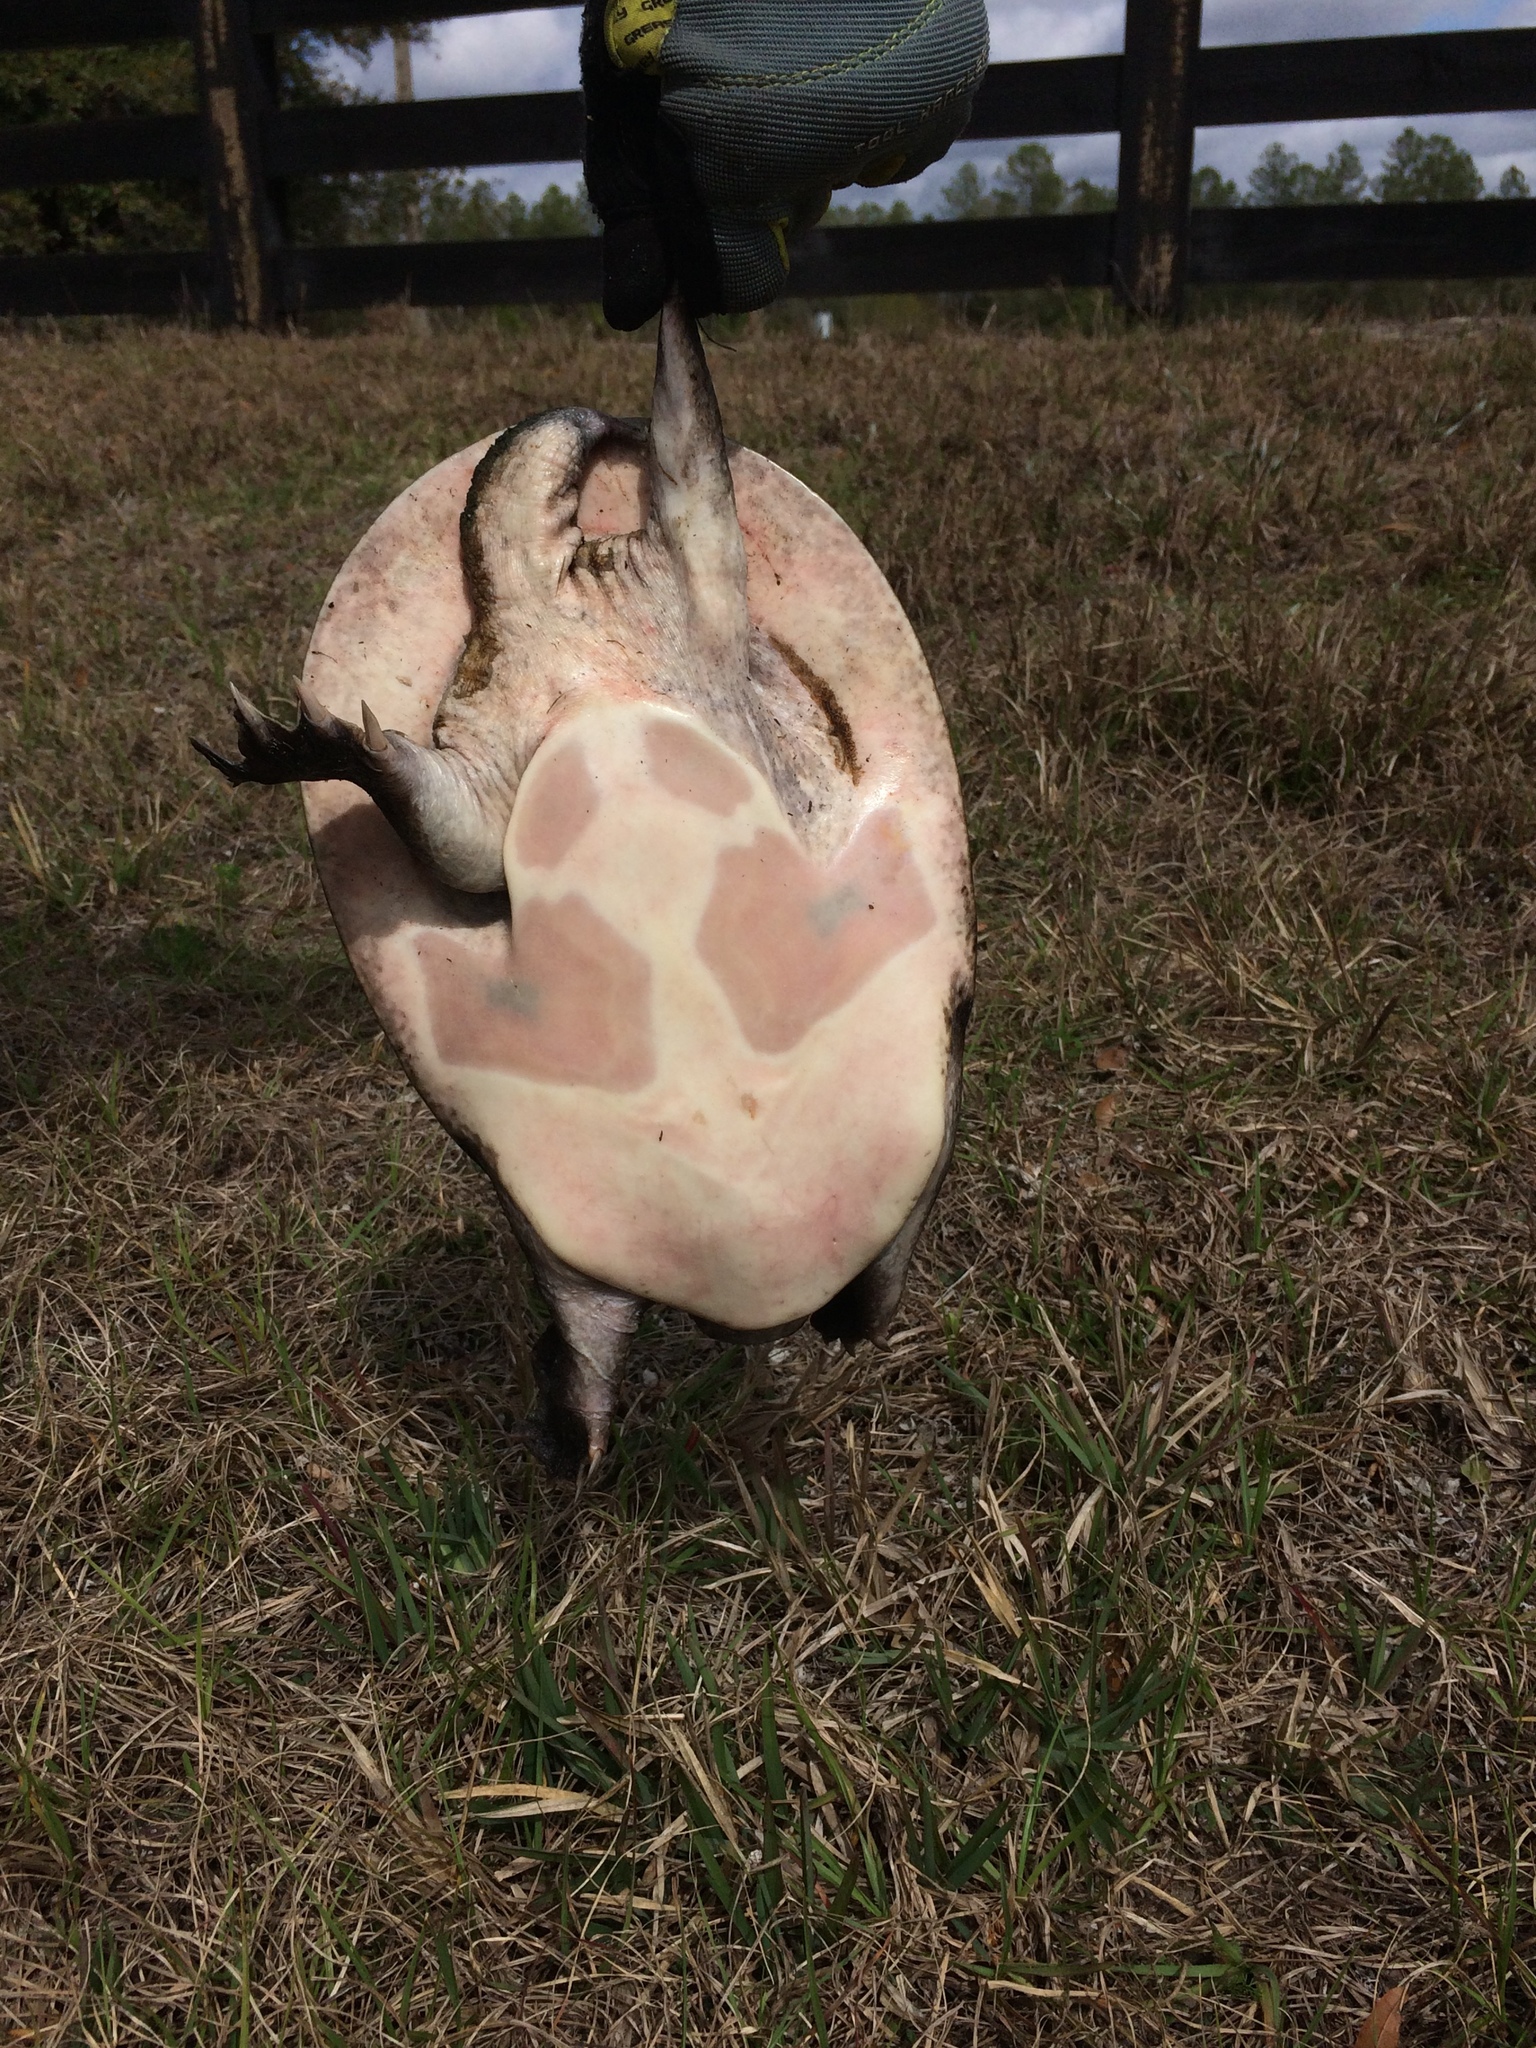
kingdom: Animalia
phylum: Chordata
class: Testudines
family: Trionychidae
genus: Apalone
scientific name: Apalone ferox
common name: Florida softshell turtle
